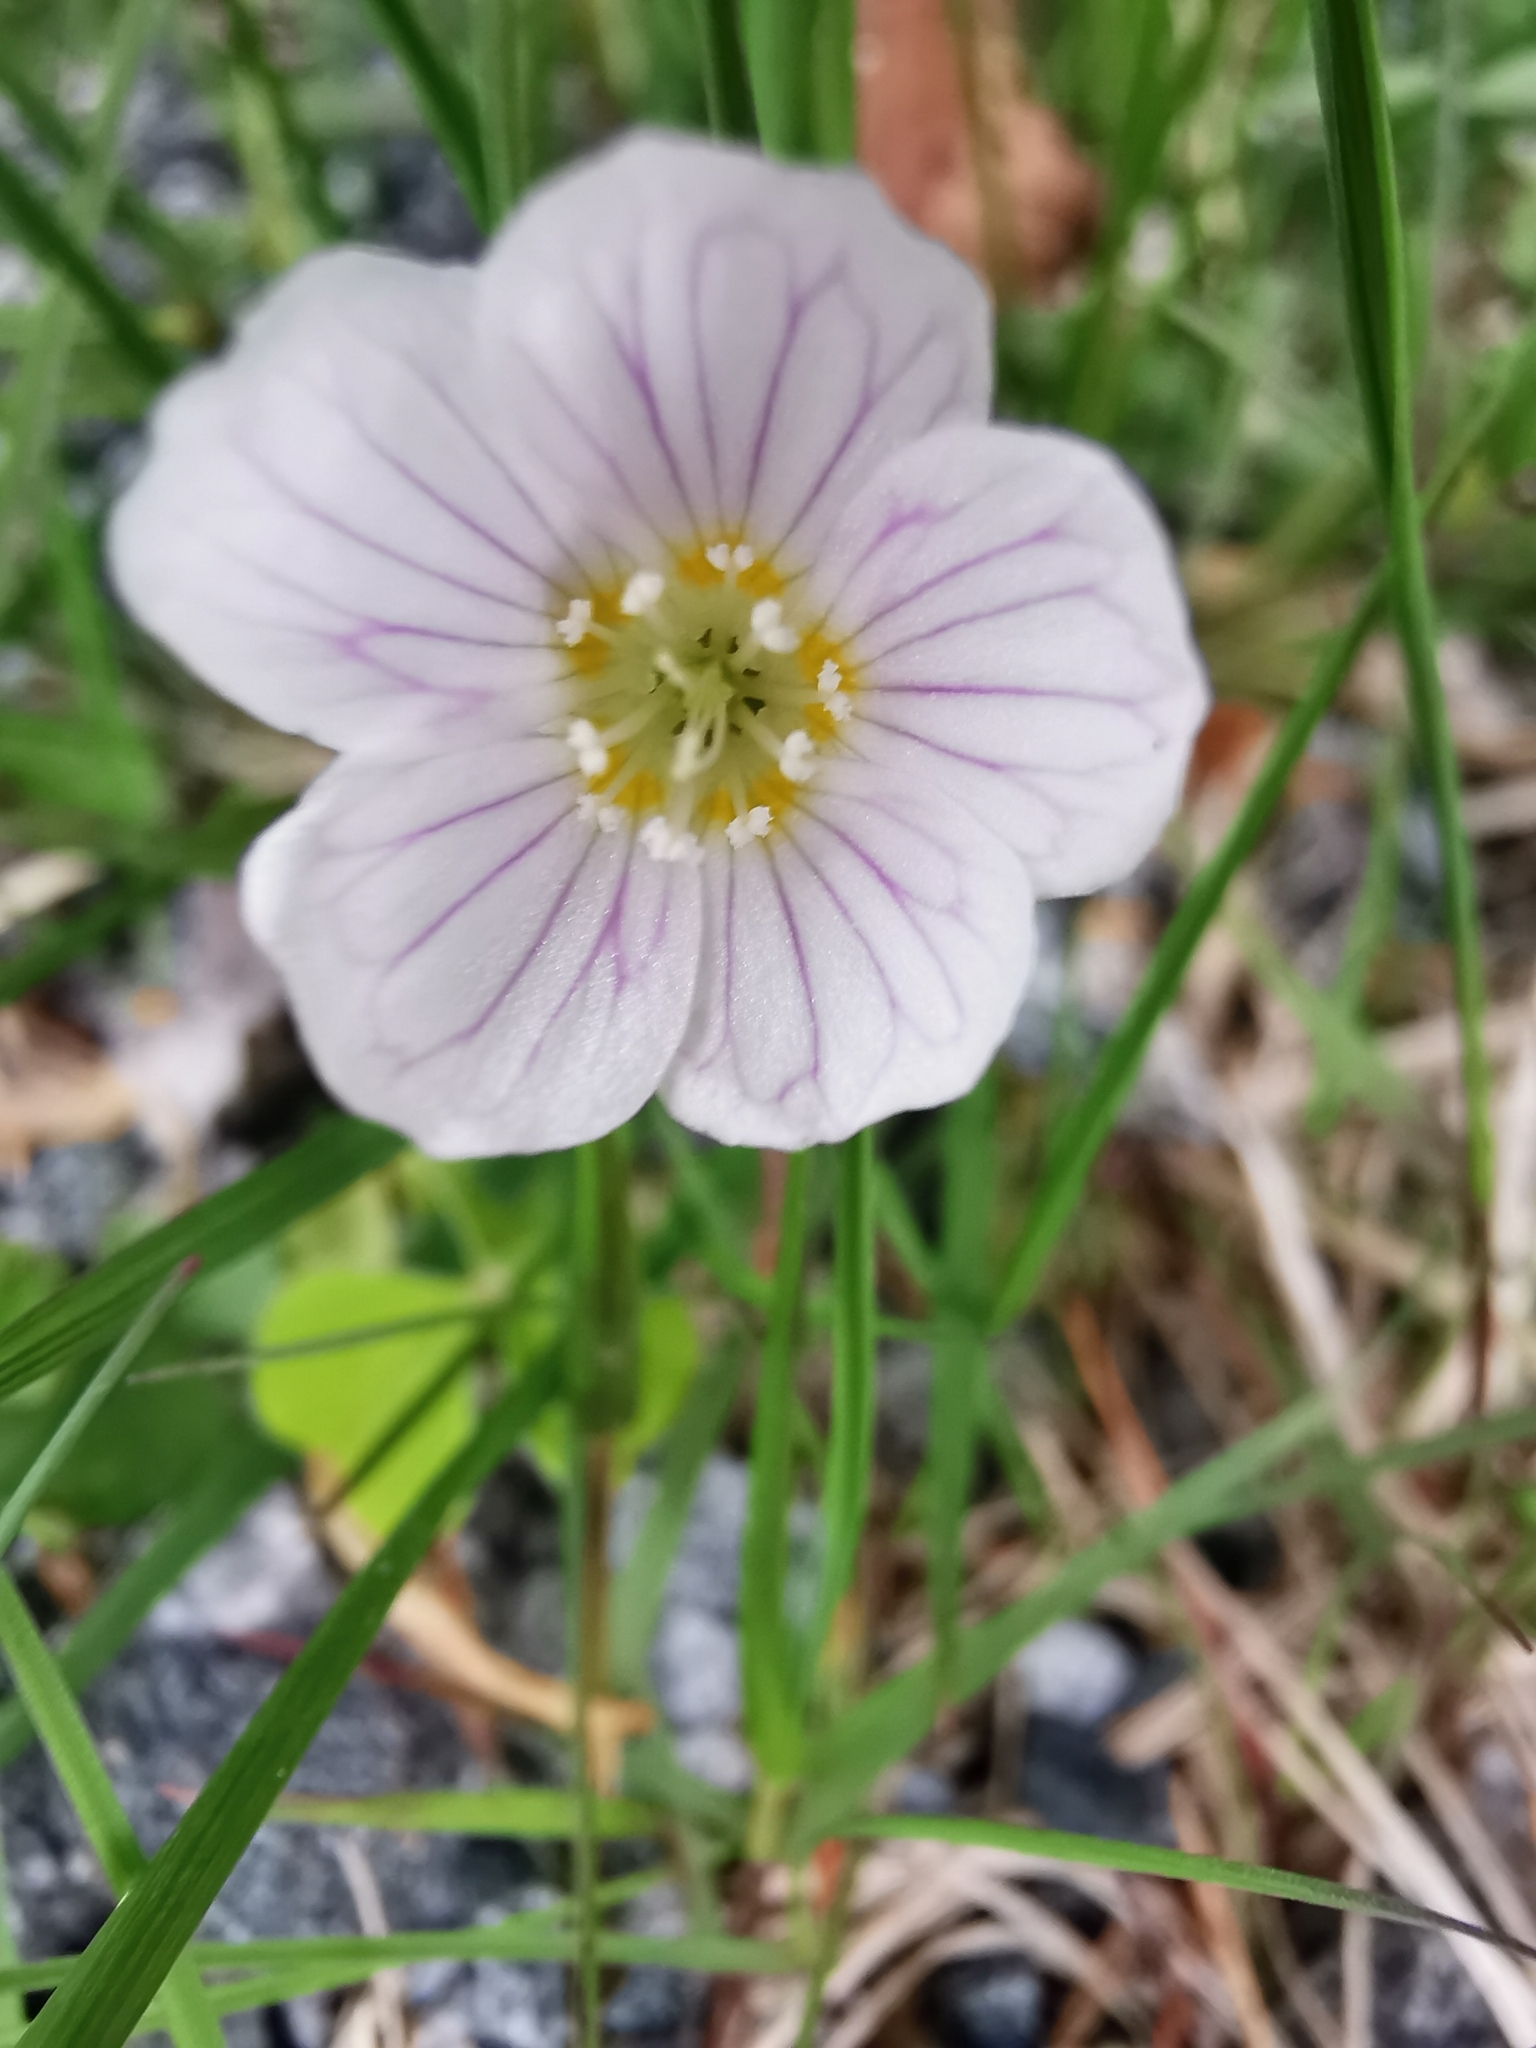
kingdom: Plantae
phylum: Tracheophyta
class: Magnoliopsida
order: Oxalidales
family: Oxalidaceae
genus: Oxalis
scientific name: Oxalis acetosella
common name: Wood-sorrel
